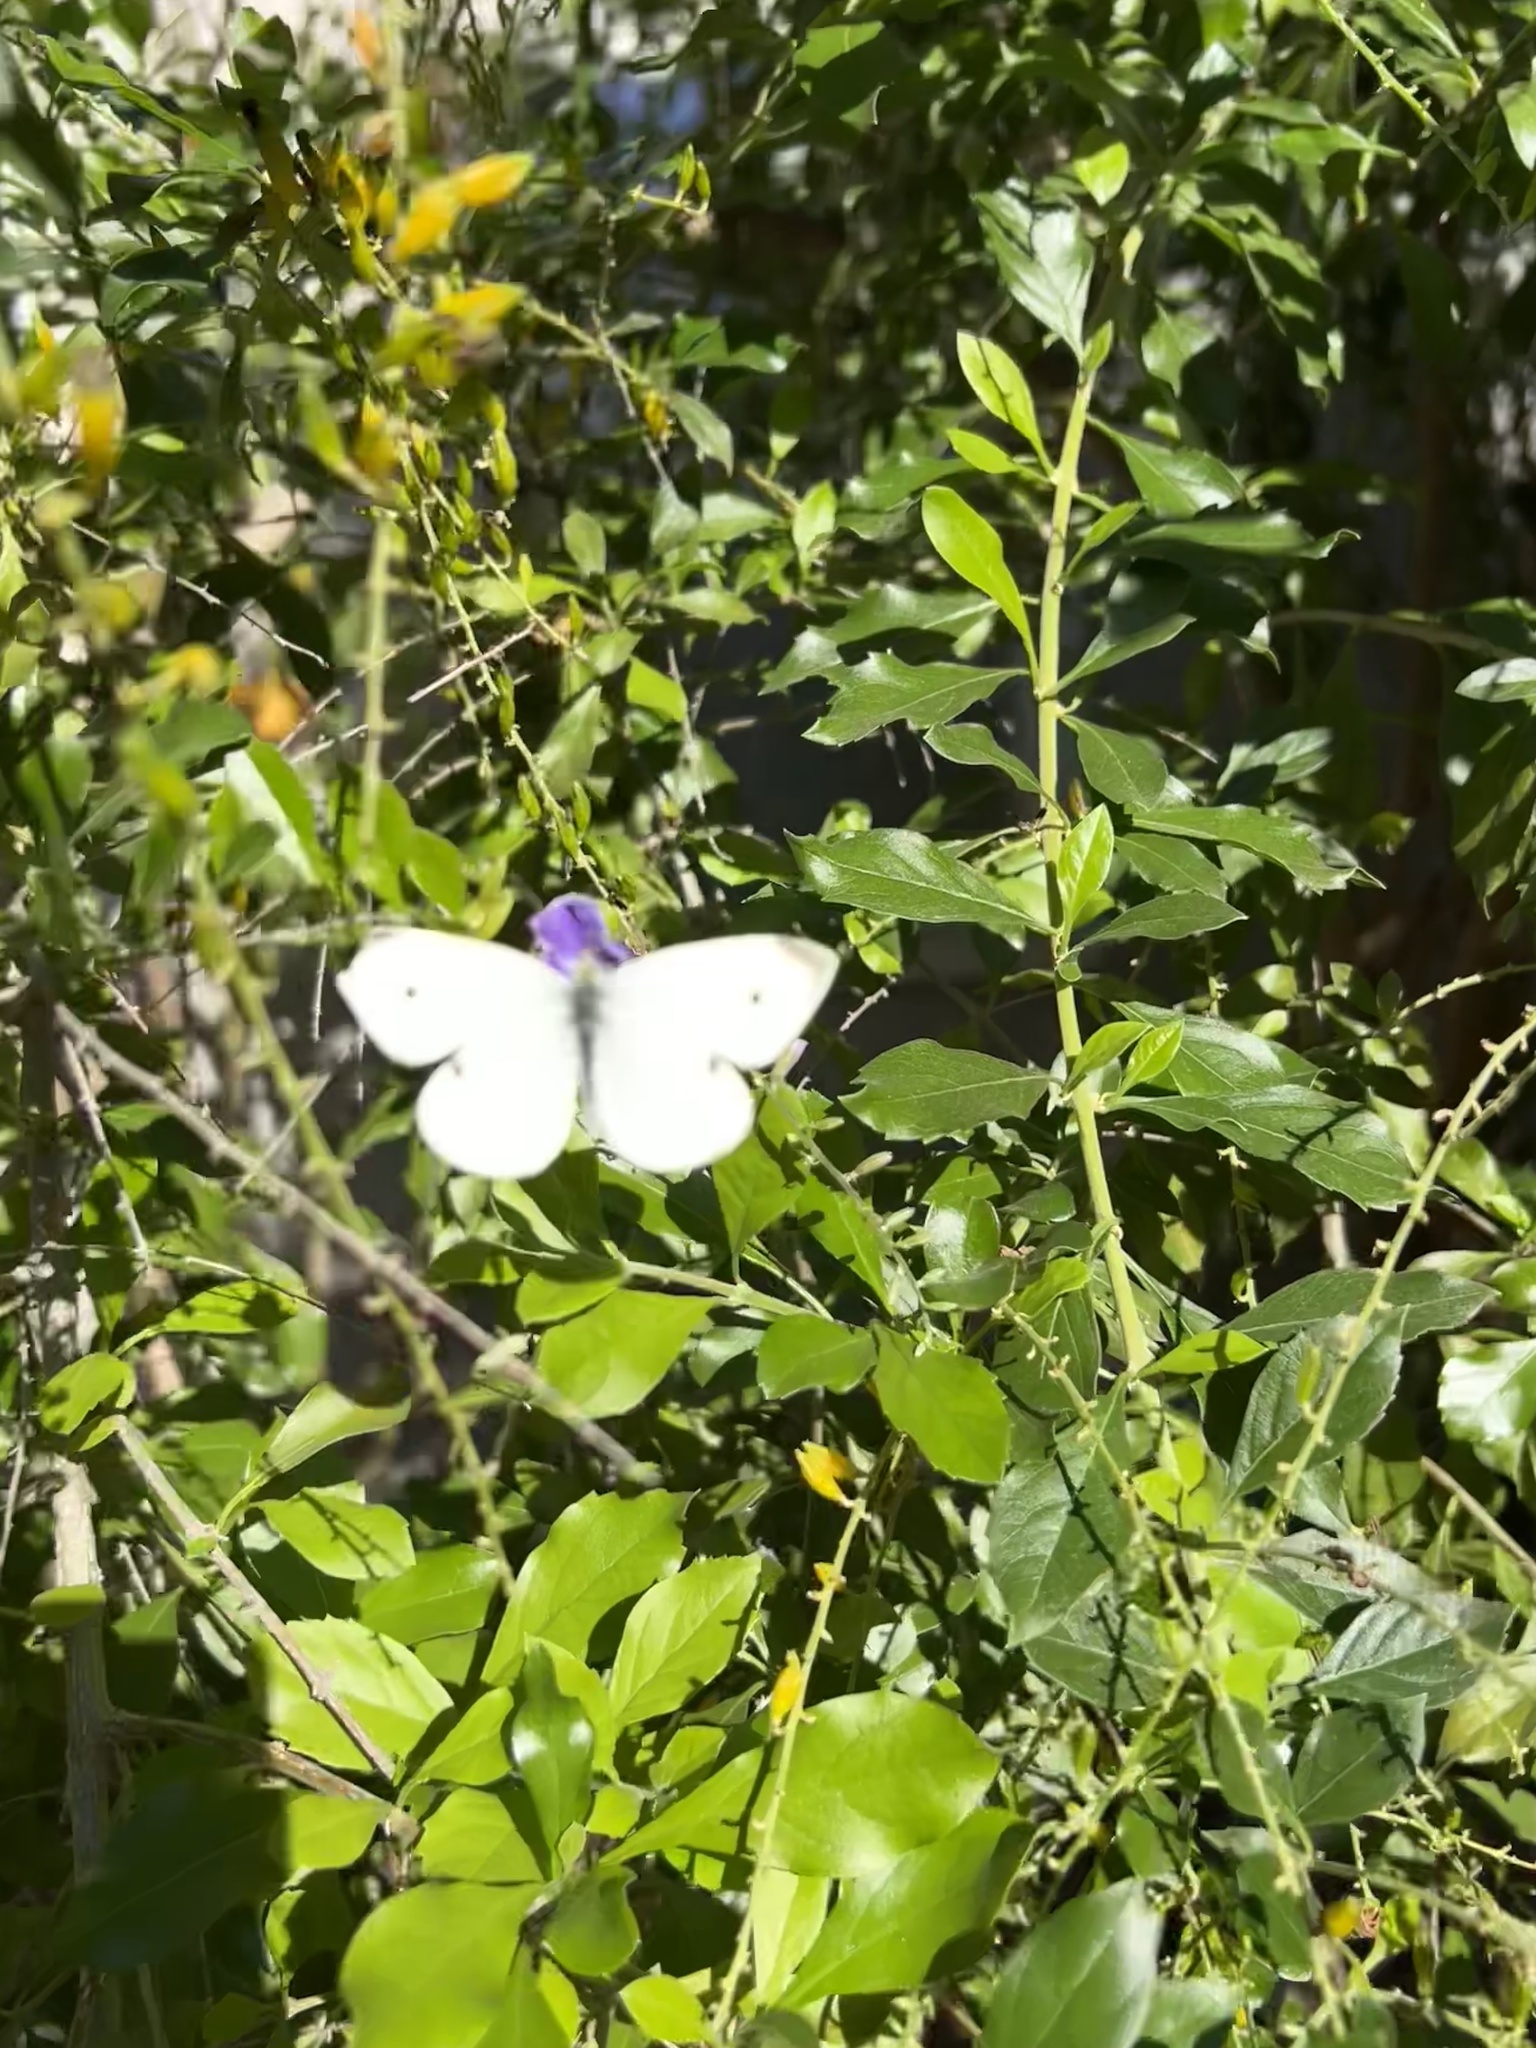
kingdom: Animalia
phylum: Arthropoda
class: Insecta
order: Lepidoptera
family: Pieridae
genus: Pieris
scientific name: Pieris rapae
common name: Small white
